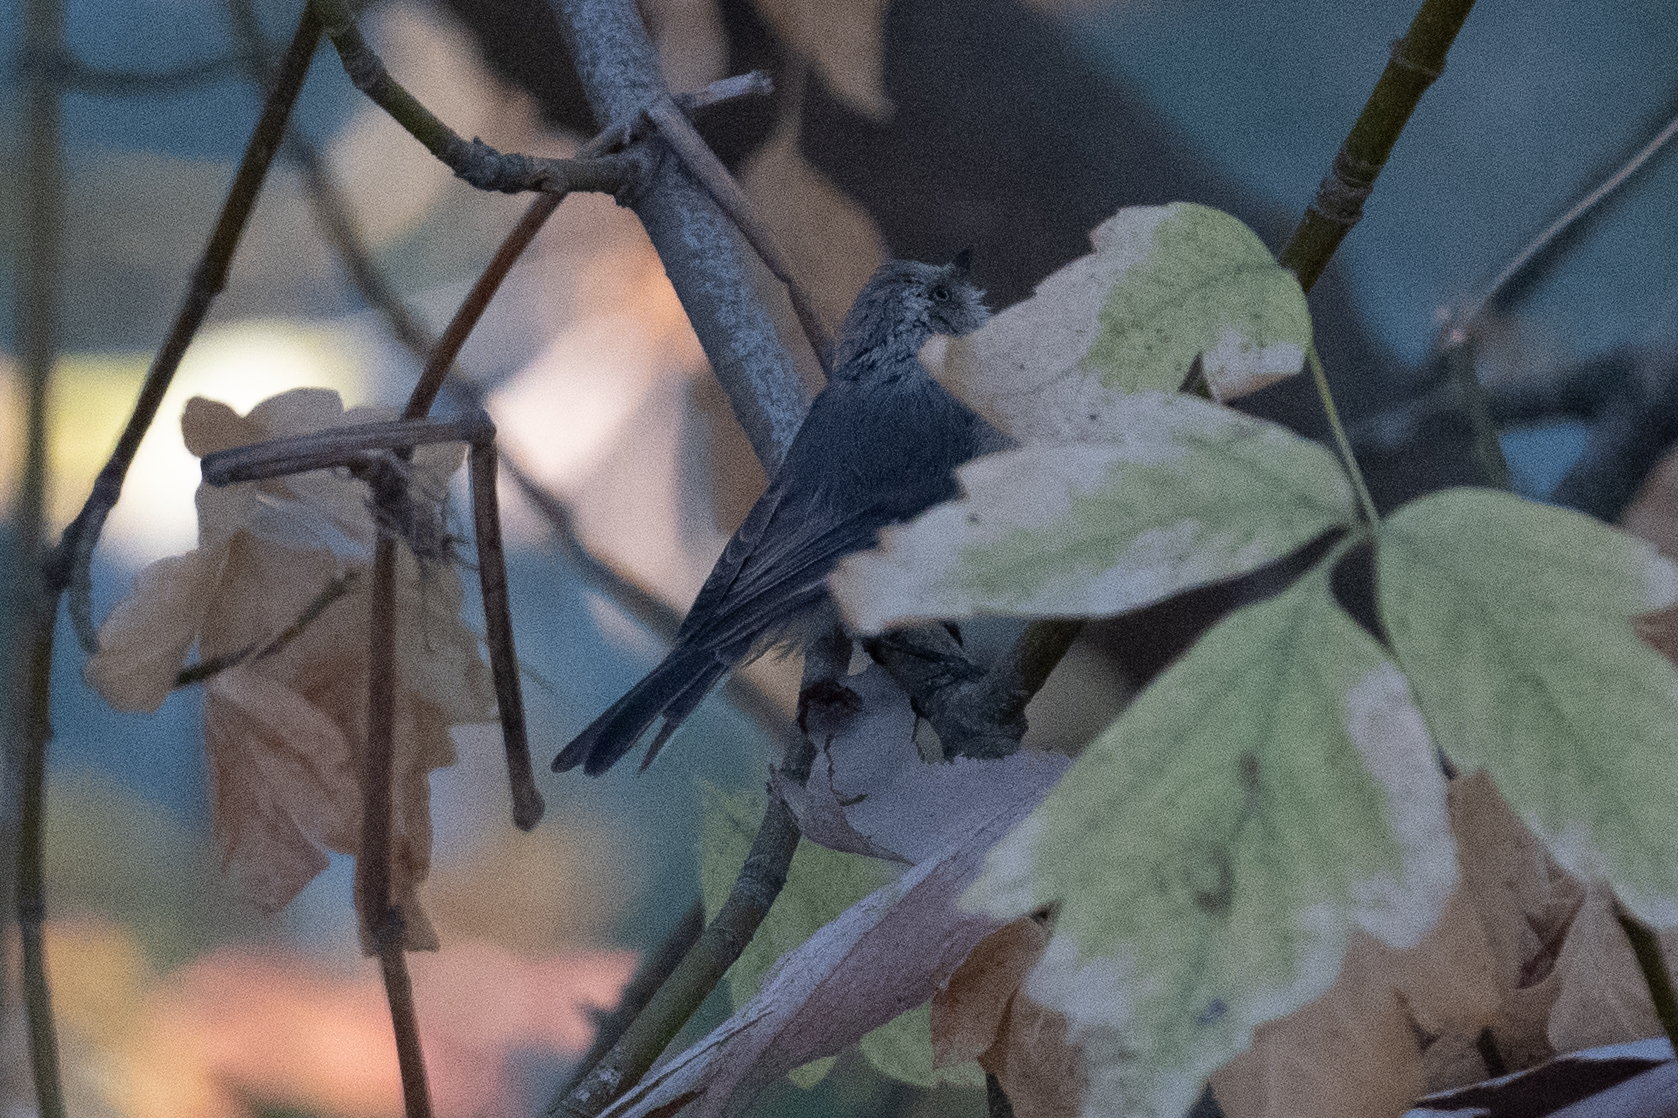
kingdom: Animalia
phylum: Chordata
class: Aves
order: Passeriformes
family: Aegithalidae
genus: Psaltriparus
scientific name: Psaltriparus minimus
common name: American bushtit
